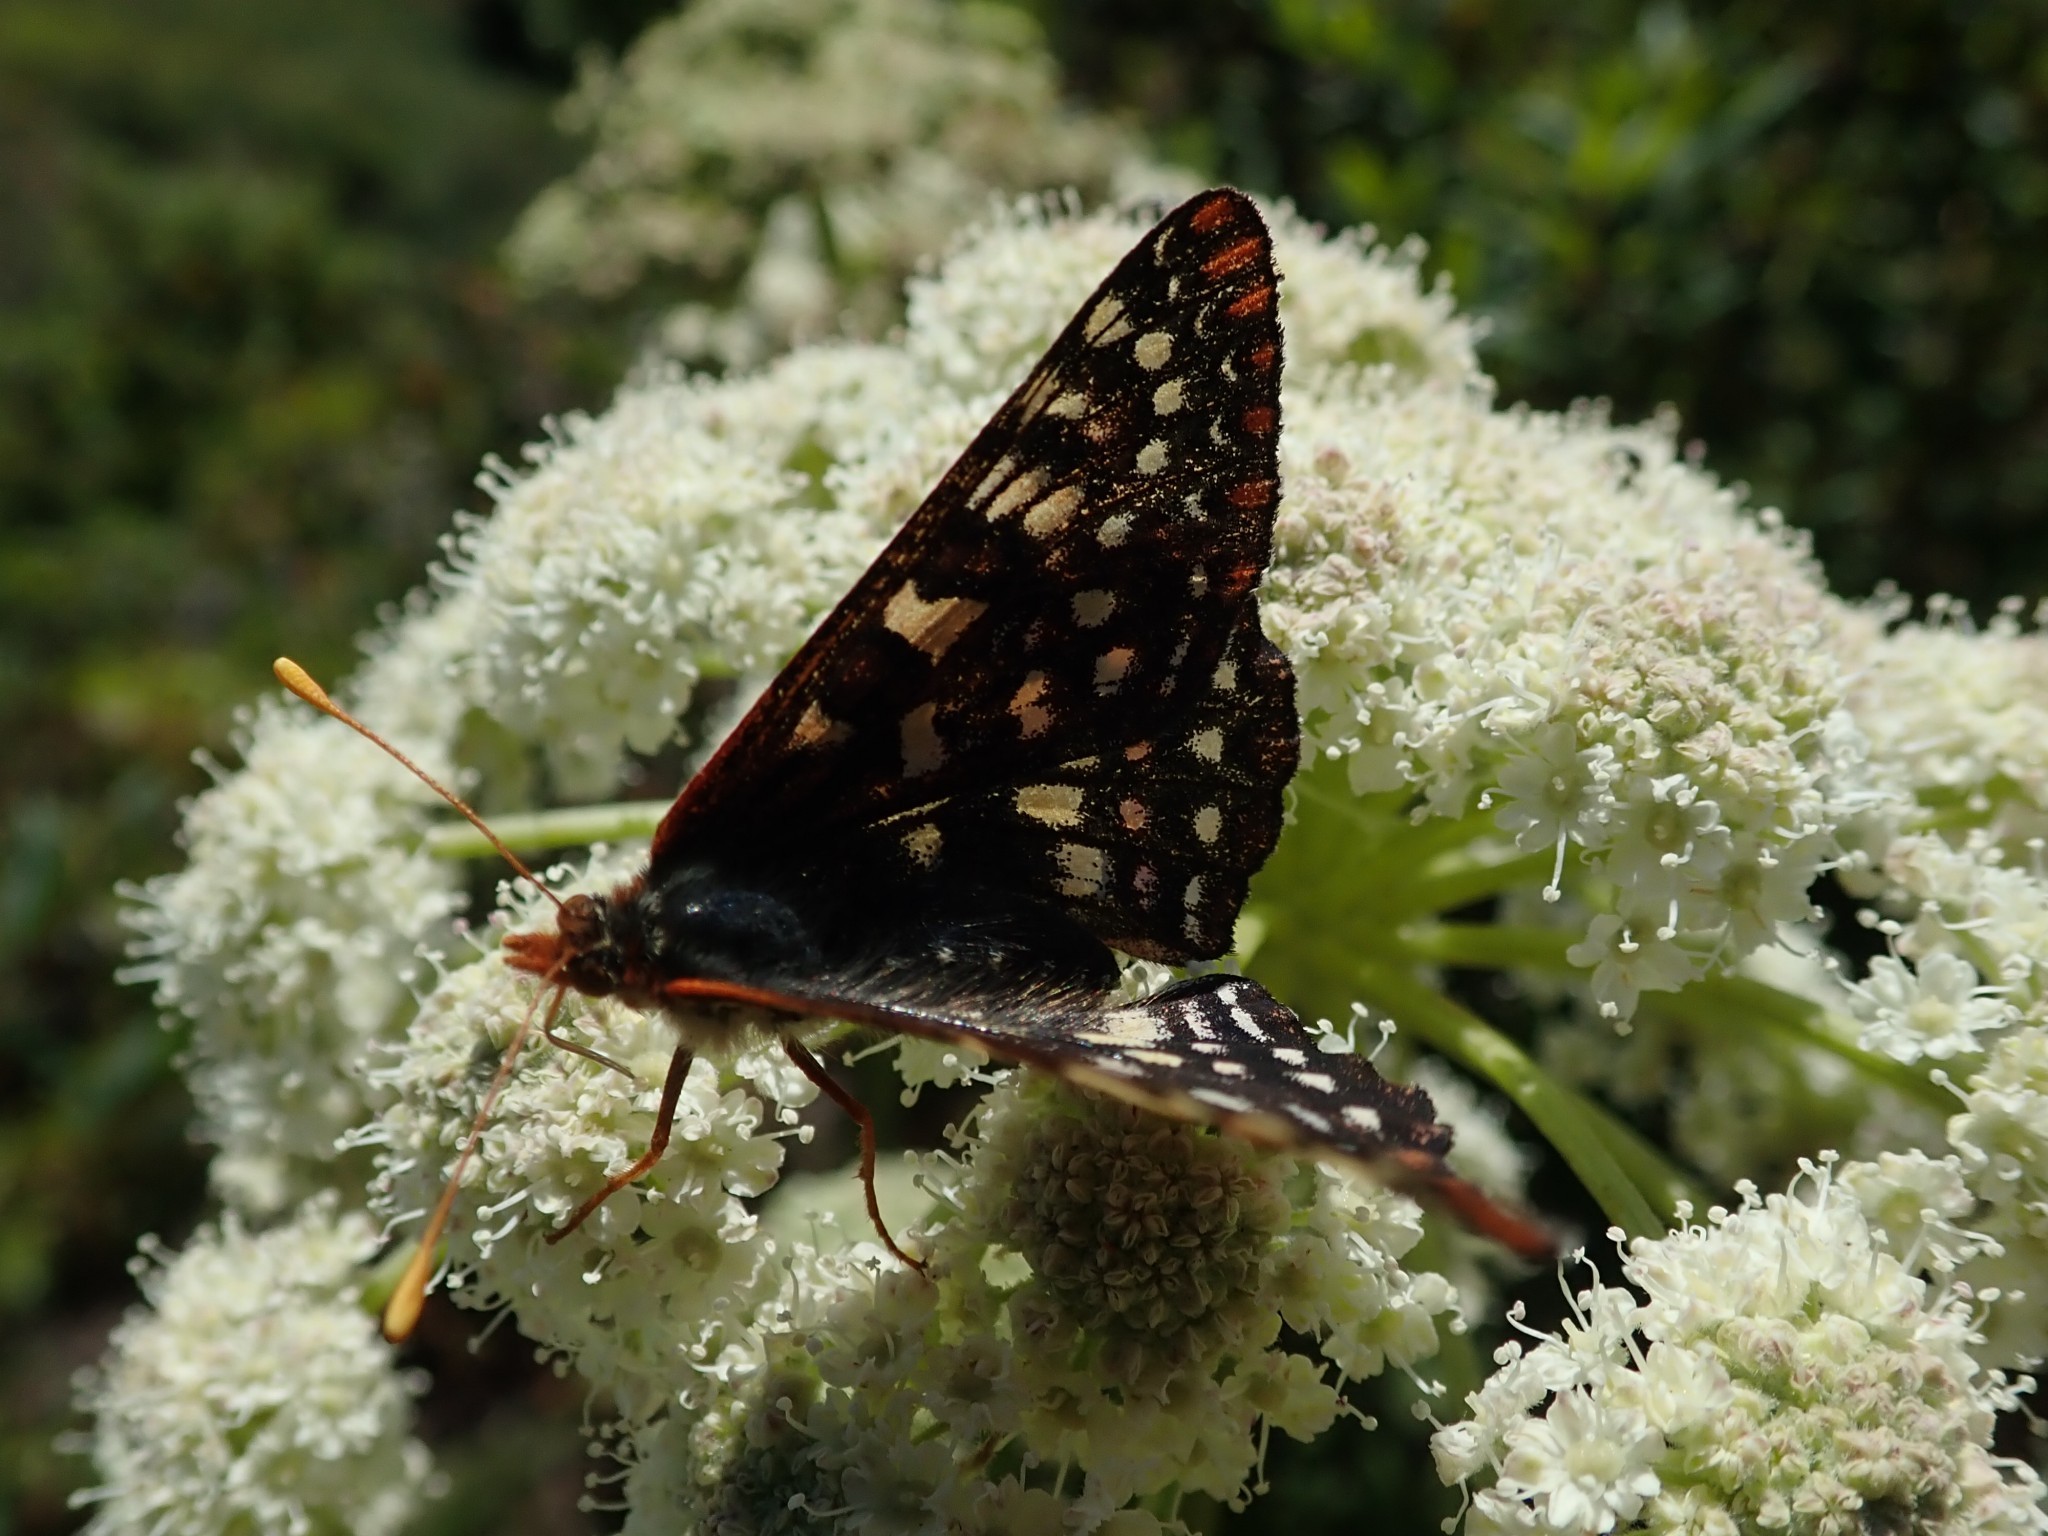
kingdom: Animalia
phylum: Arthropoda
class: Insecta
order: Lepidoptera
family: Nymphalidae
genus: Occidryas
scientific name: Occidryas chalcedona
